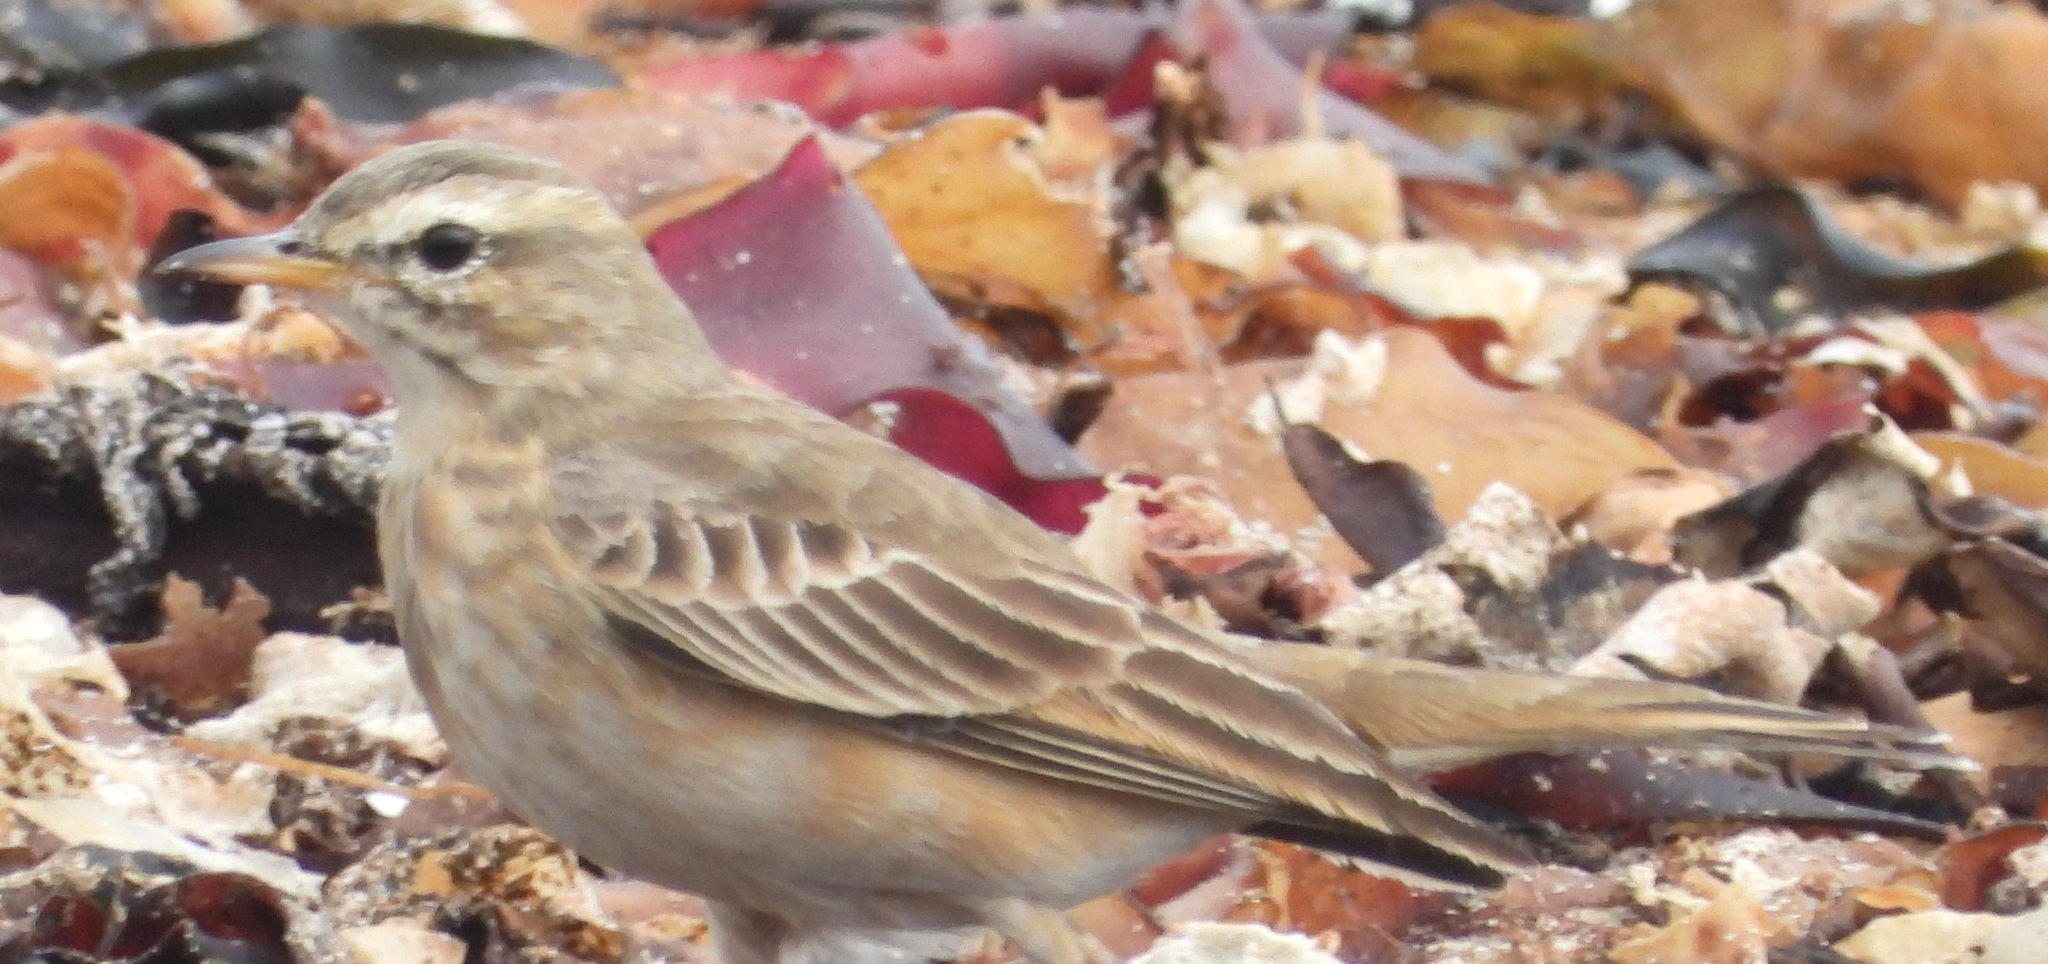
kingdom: Animalia
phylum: Chordata
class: Aves
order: Passeriformes
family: Motacillidae
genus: Anthus
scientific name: Anthus leucophrys
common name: Plain-backed pipit
